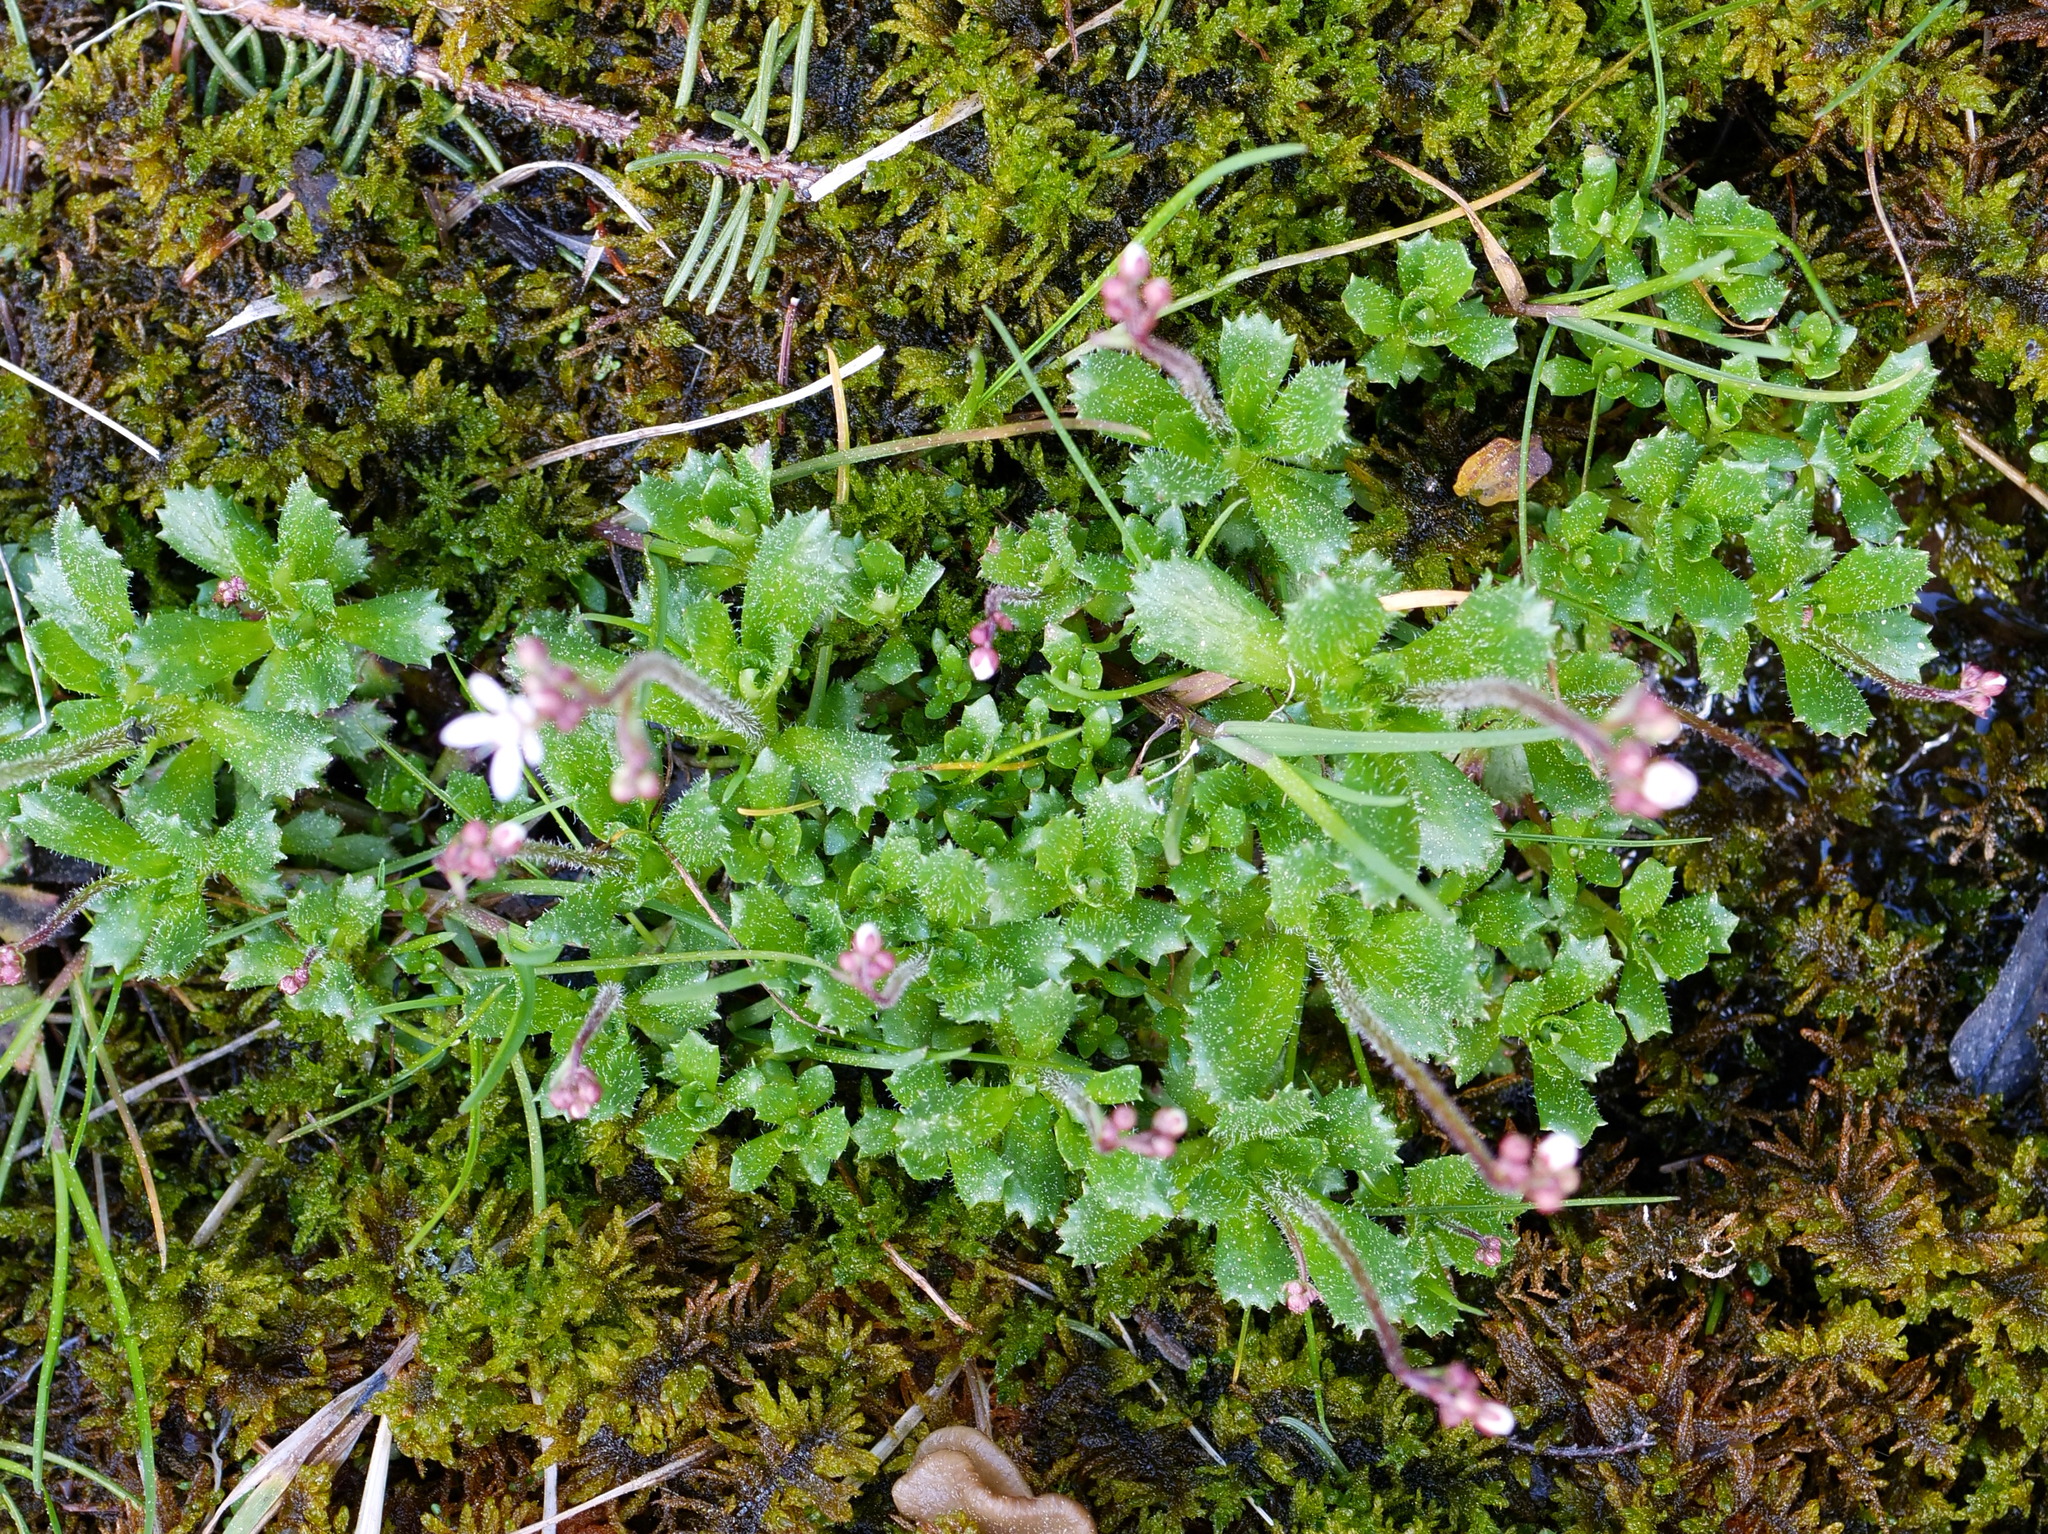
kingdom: Plantae
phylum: Tracheophyta
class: Magnoliopsida
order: Saxifragales
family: Saxifragaceae
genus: Micranthes
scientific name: Micranthes stellaris
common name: Starry saxifrage
